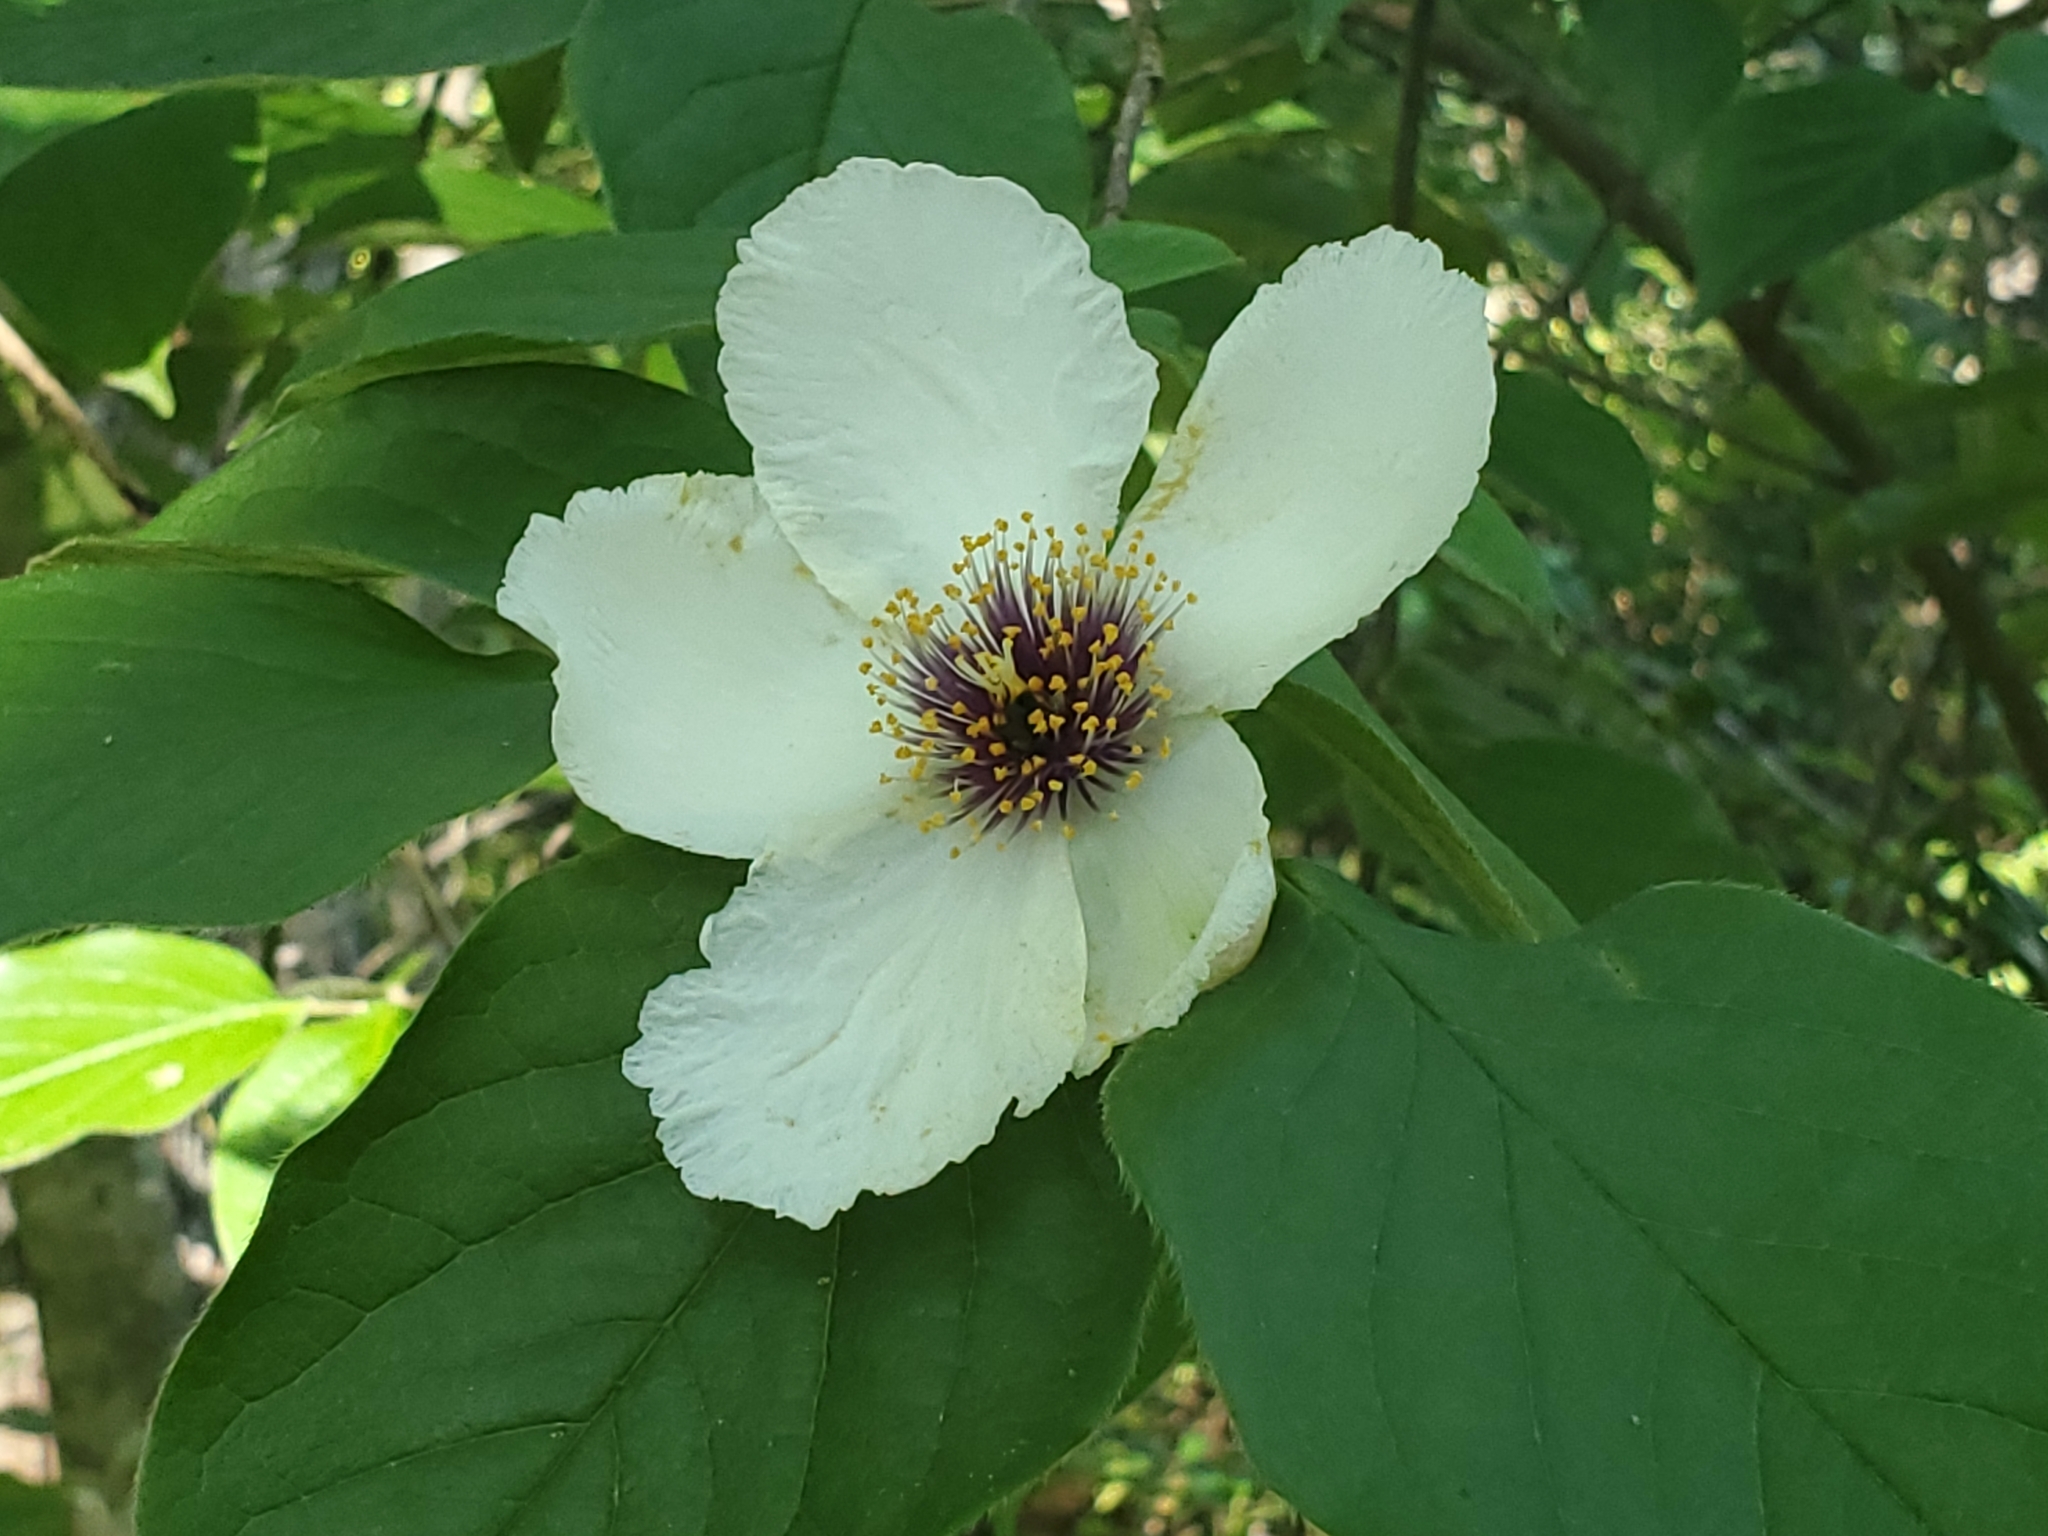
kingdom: Plantae
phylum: Tracheophyta
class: Magnoliopsida
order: Ericales
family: Theaceae
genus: Stewartia
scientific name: Stewartia ovata
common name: Mountain camellia
